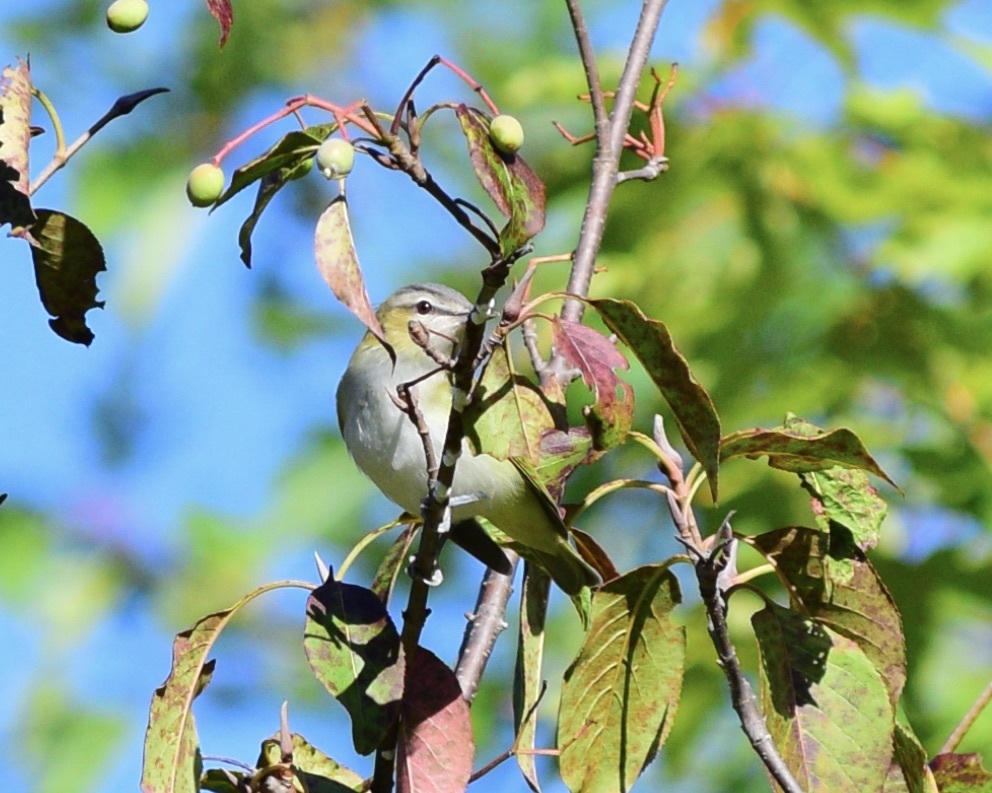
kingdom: Animalia
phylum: Chordata
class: Aves
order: Passeriformes
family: Vireonidae
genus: Vireo
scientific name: Vireo olivaceus
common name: Red-eyed vireo
